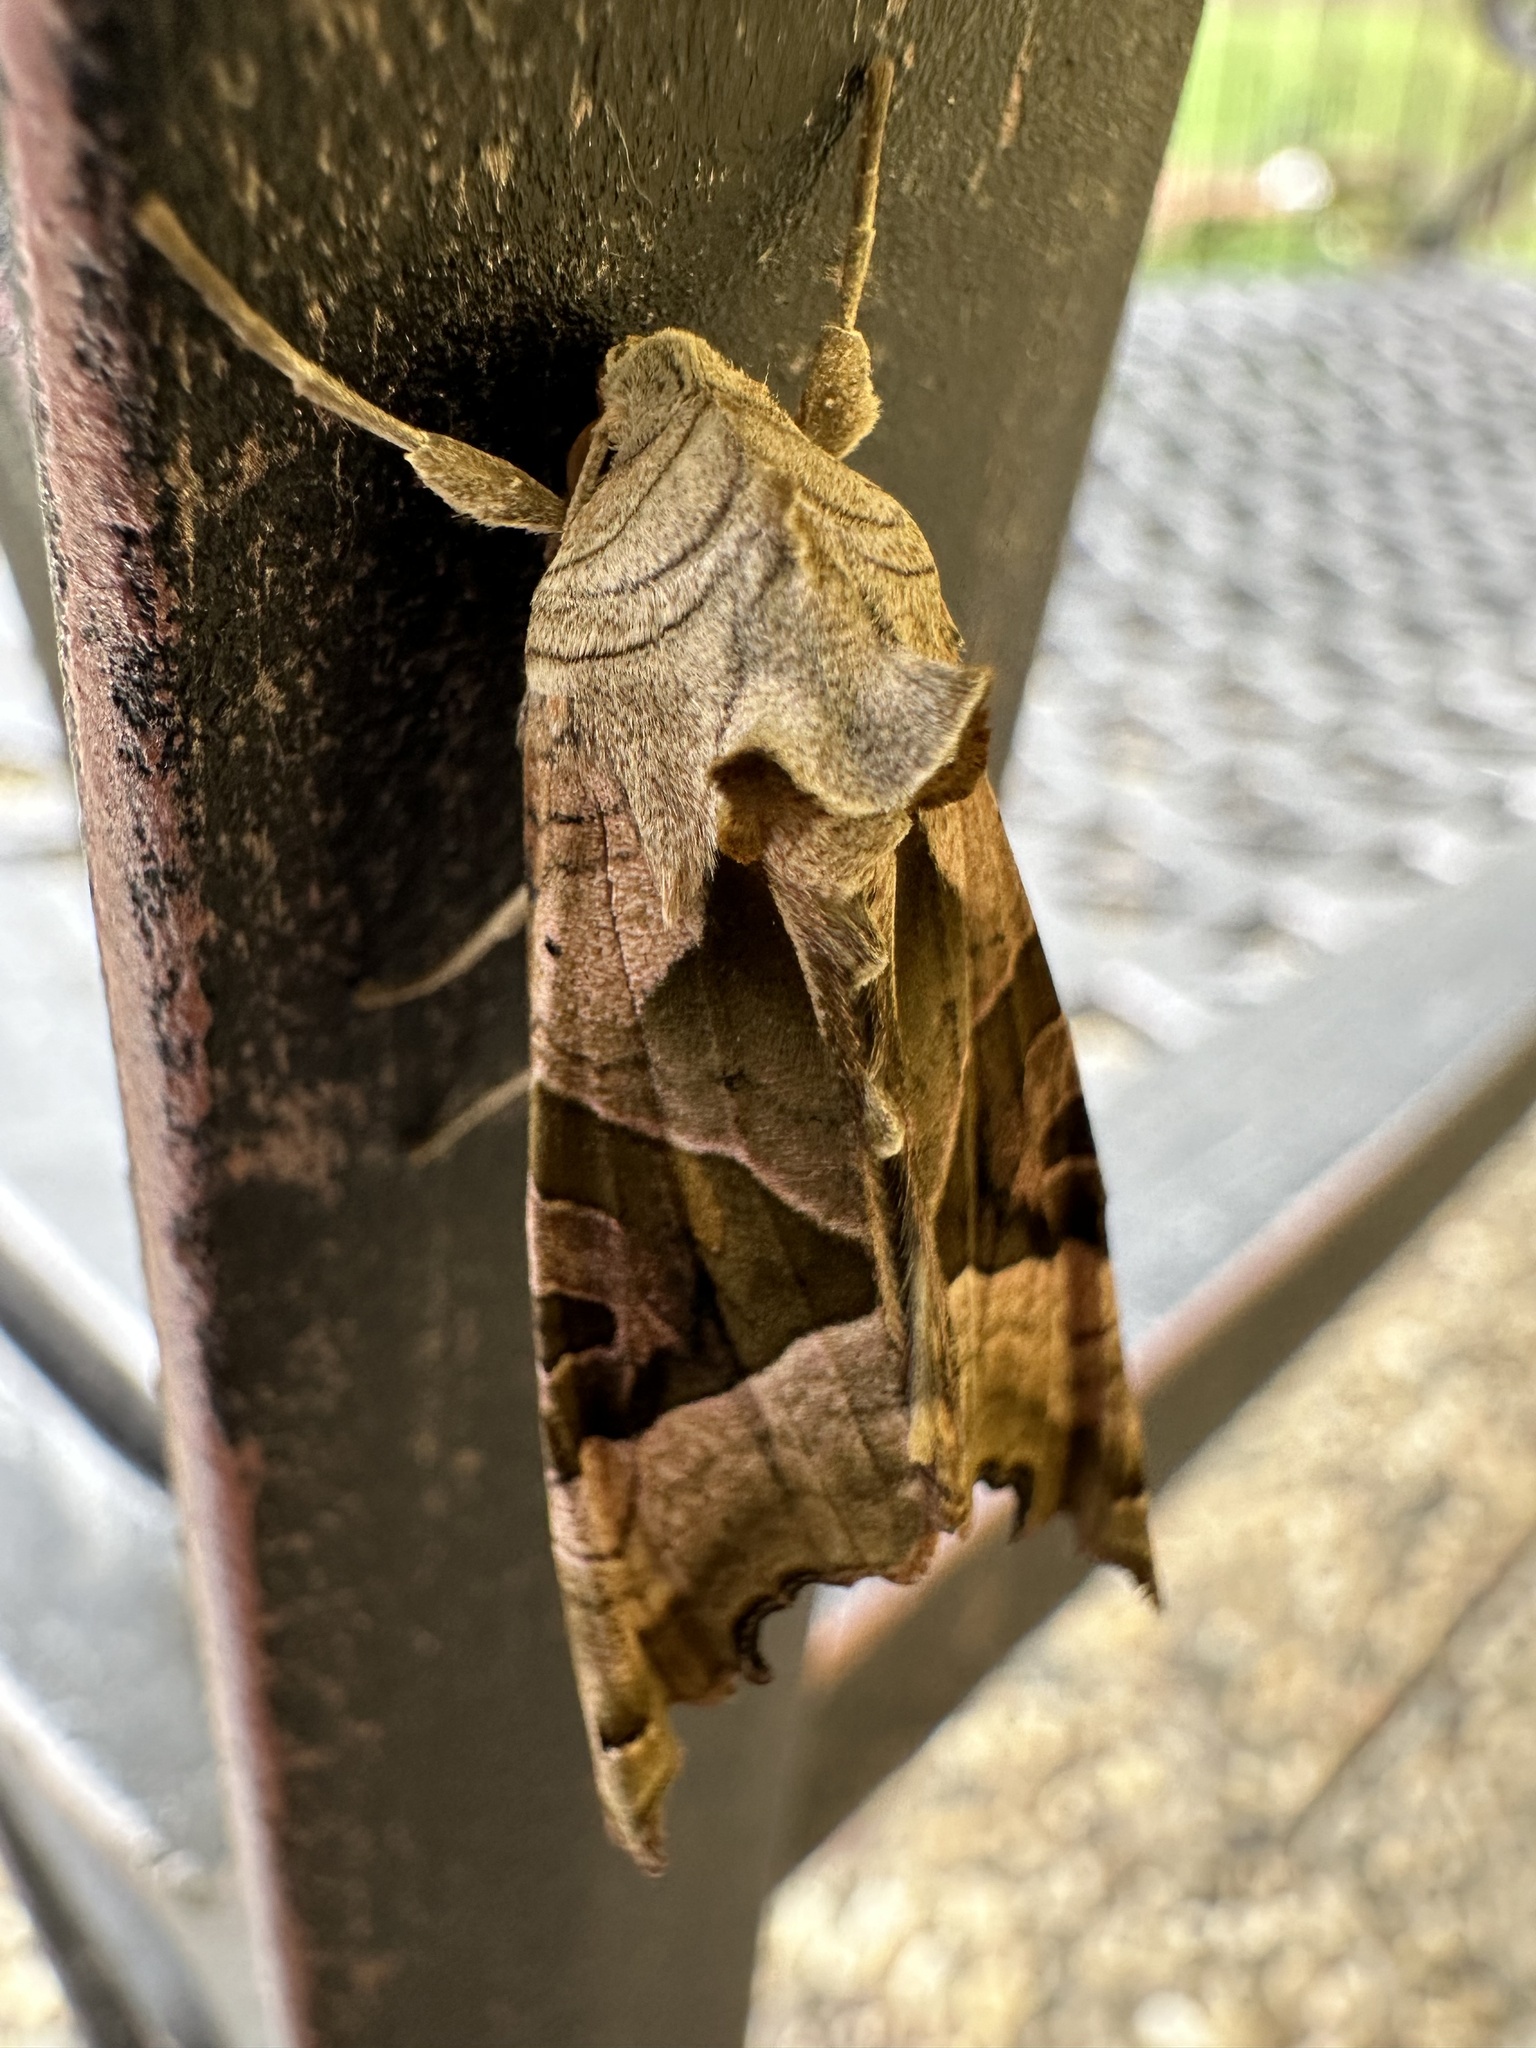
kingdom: Animalia
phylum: Arthropoda
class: Insecta
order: Lepidoptera
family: Noctuidae
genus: Phlogophora
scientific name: Phlogophora meticulosa
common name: Angle shades
